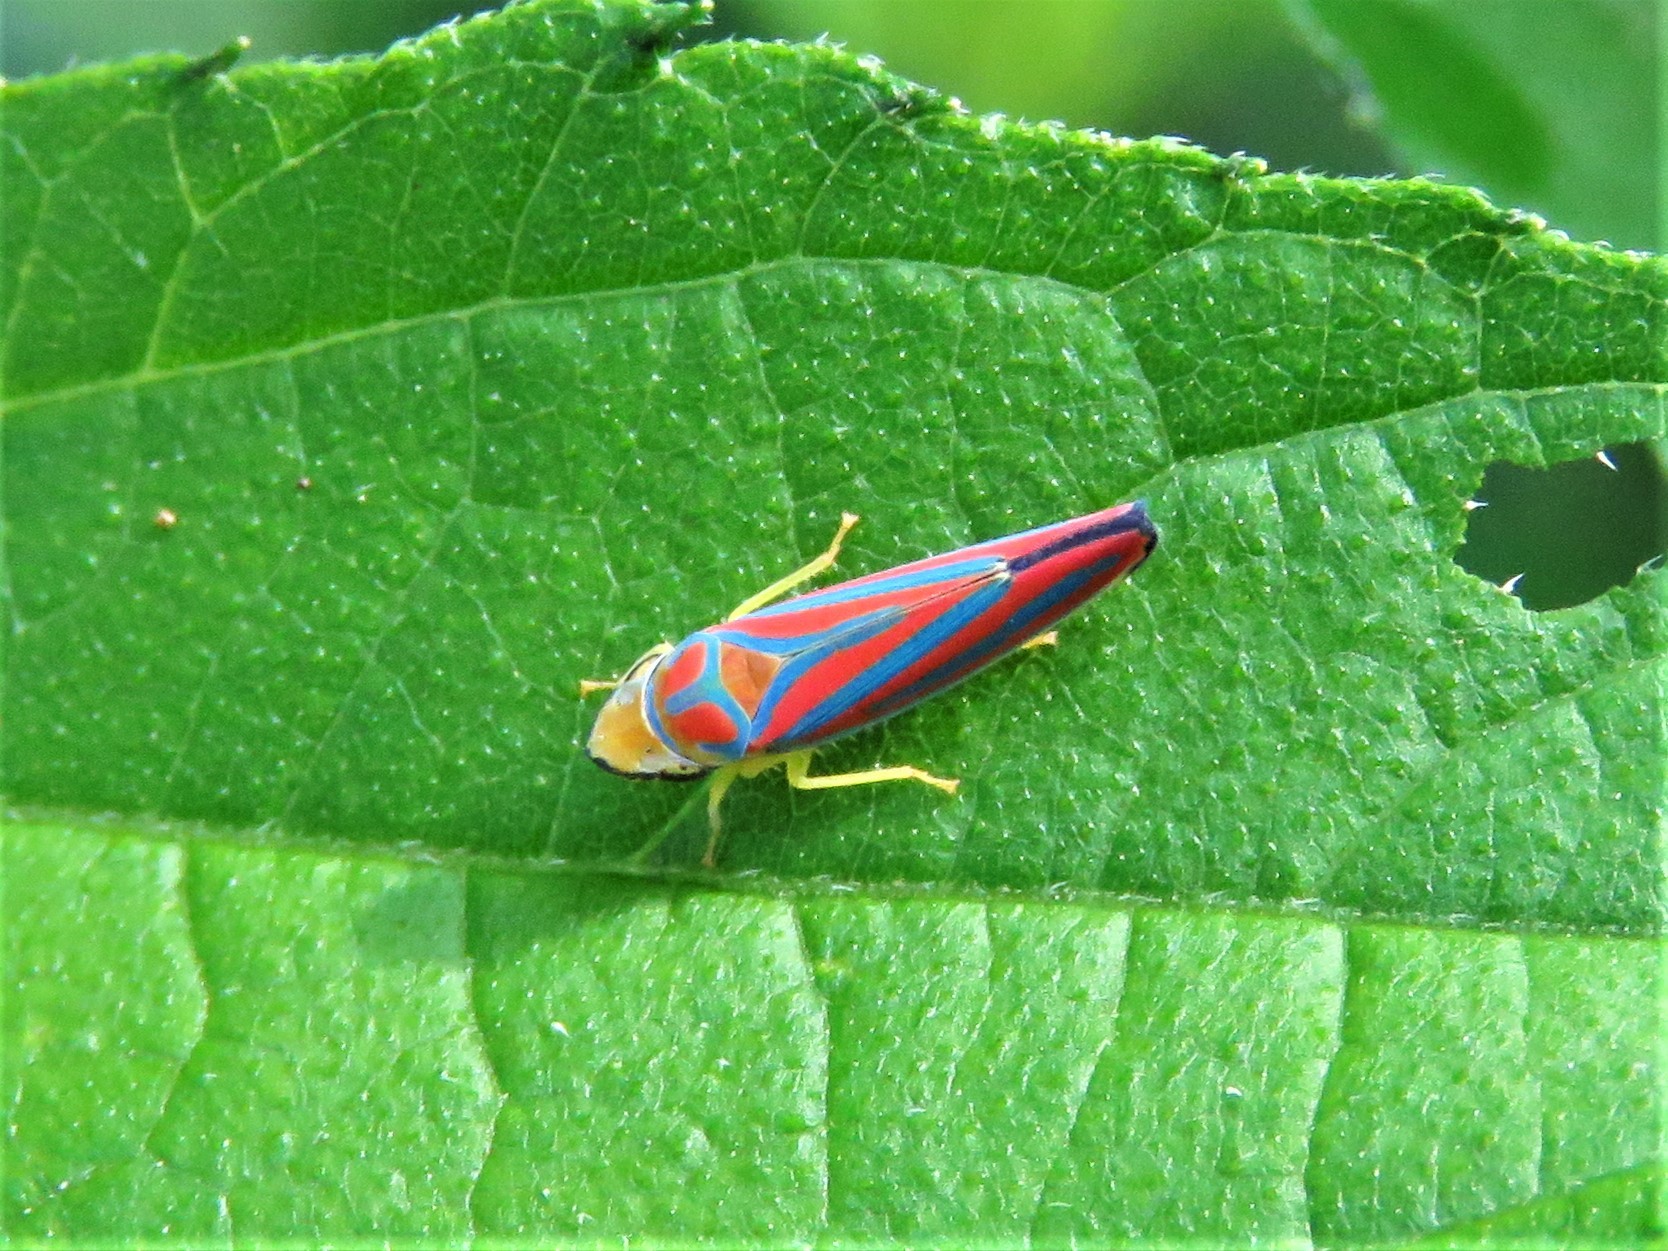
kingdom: Animalia
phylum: Arthropoda
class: Insecta
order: Hemiptera
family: Cicadellidae
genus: Graphocephala
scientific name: Graphocephala coccinea
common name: Candy-striped leafhopper
